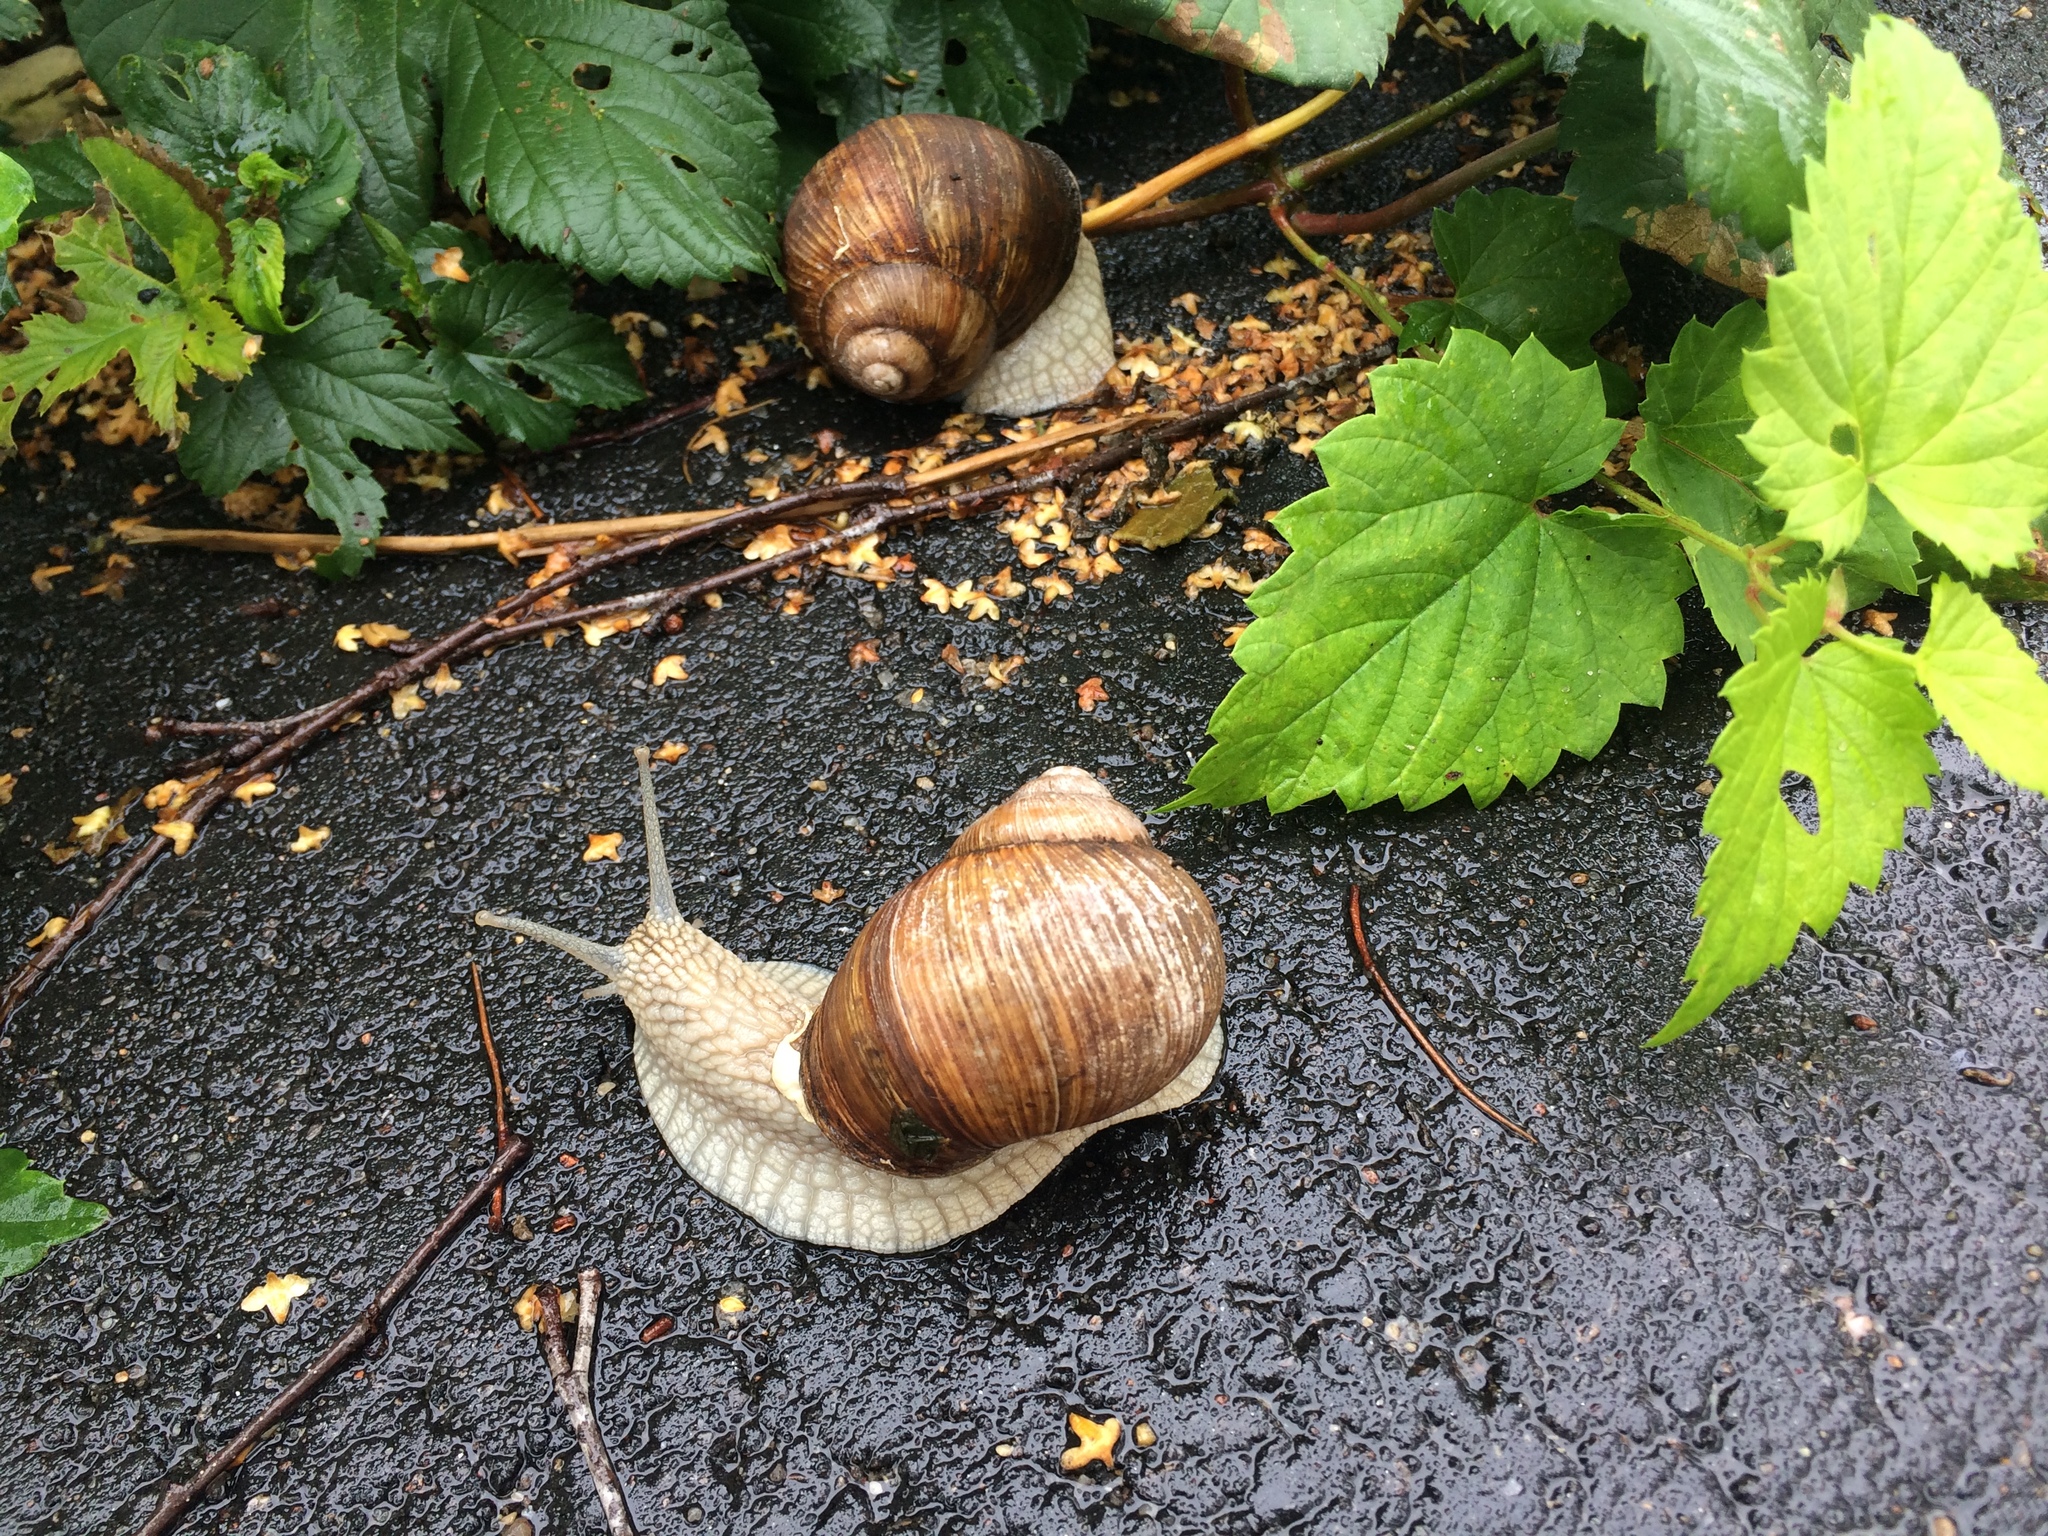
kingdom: Animalia
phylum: Mollusca
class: Gastropoda
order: Stylommatophora
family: Helicidae
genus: Helix
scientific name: Helix pomatia
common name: Roman snail
